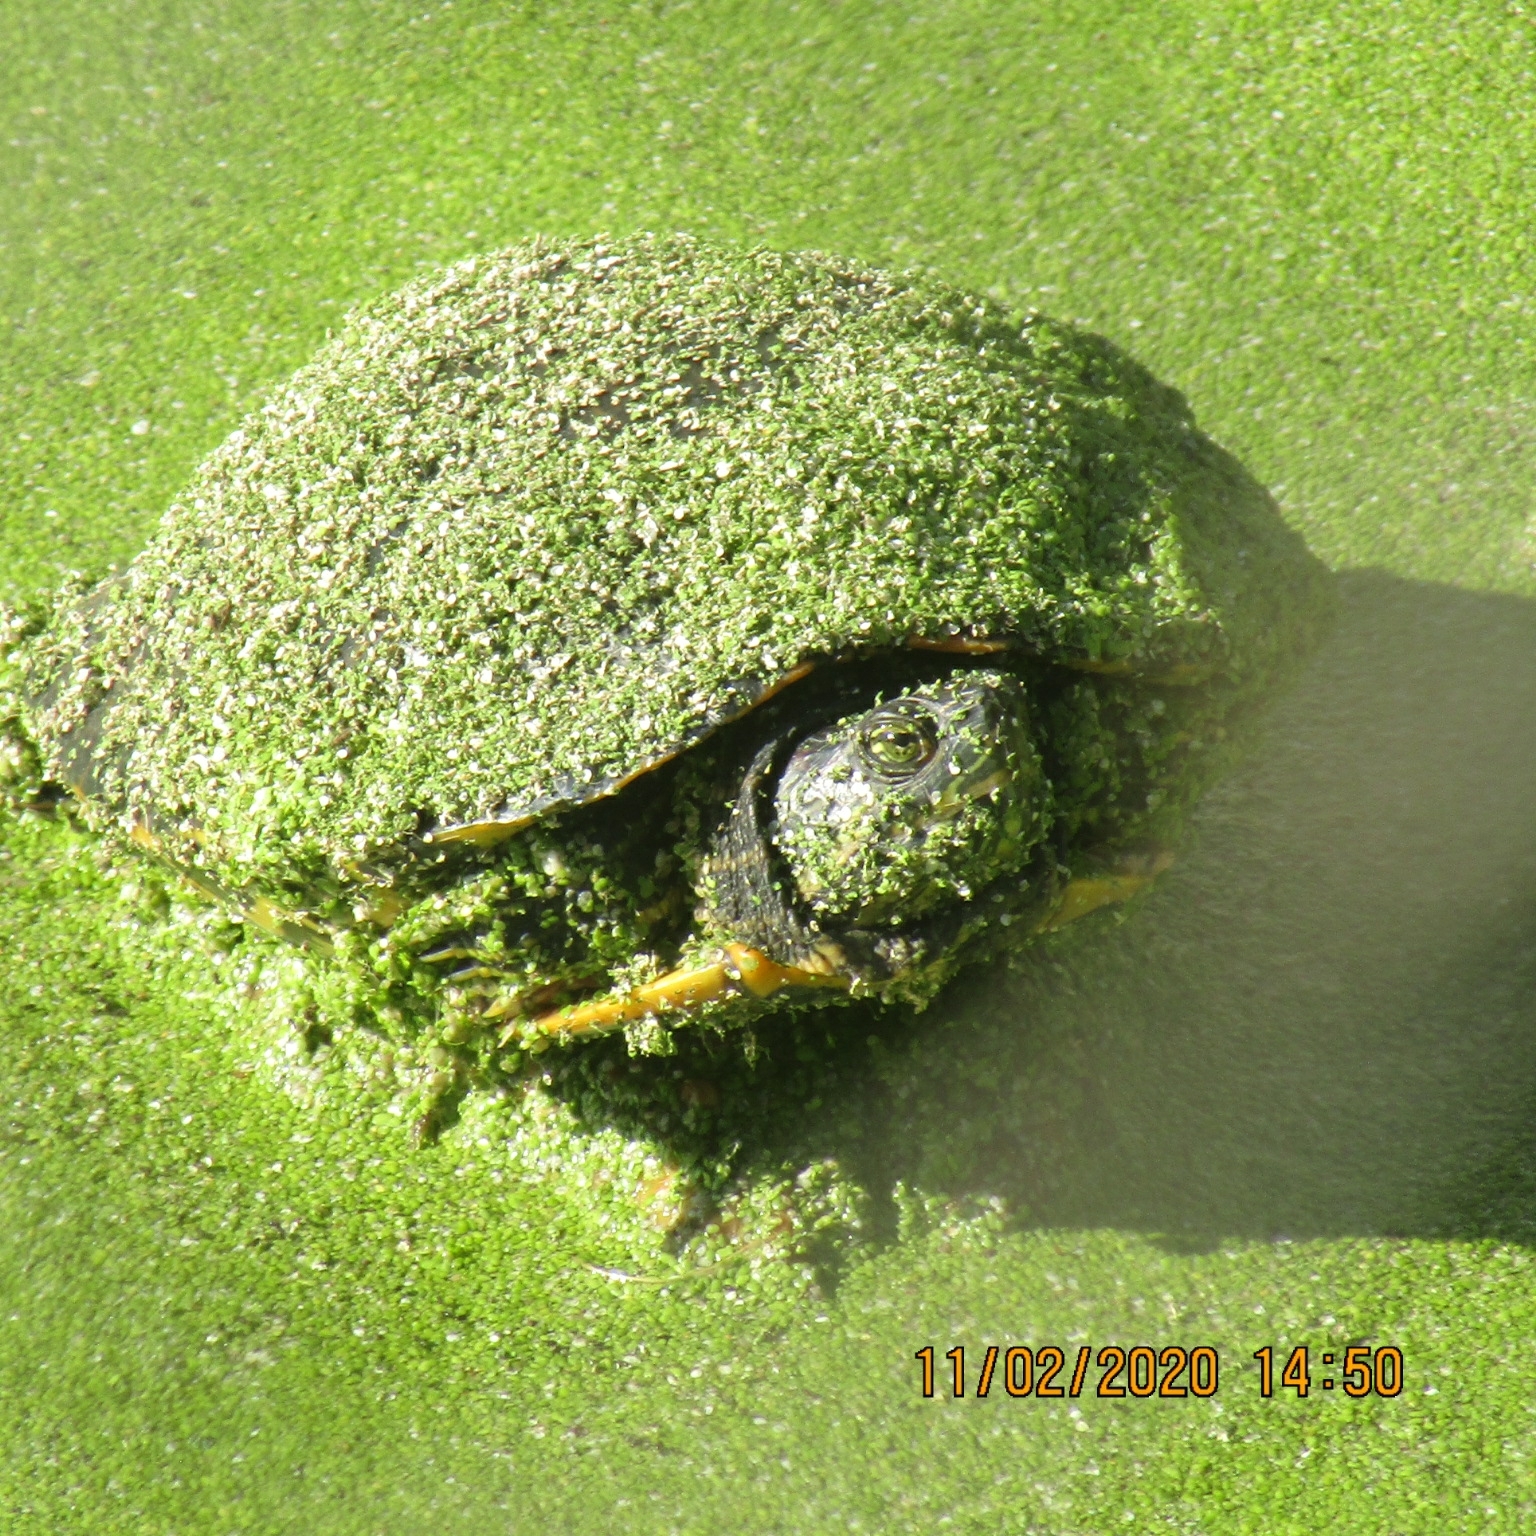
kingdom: Animalia
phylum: Chordata
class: Testudines
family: Emydidae
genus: Trachemys
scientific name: Trachemys scripta
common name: Slider
